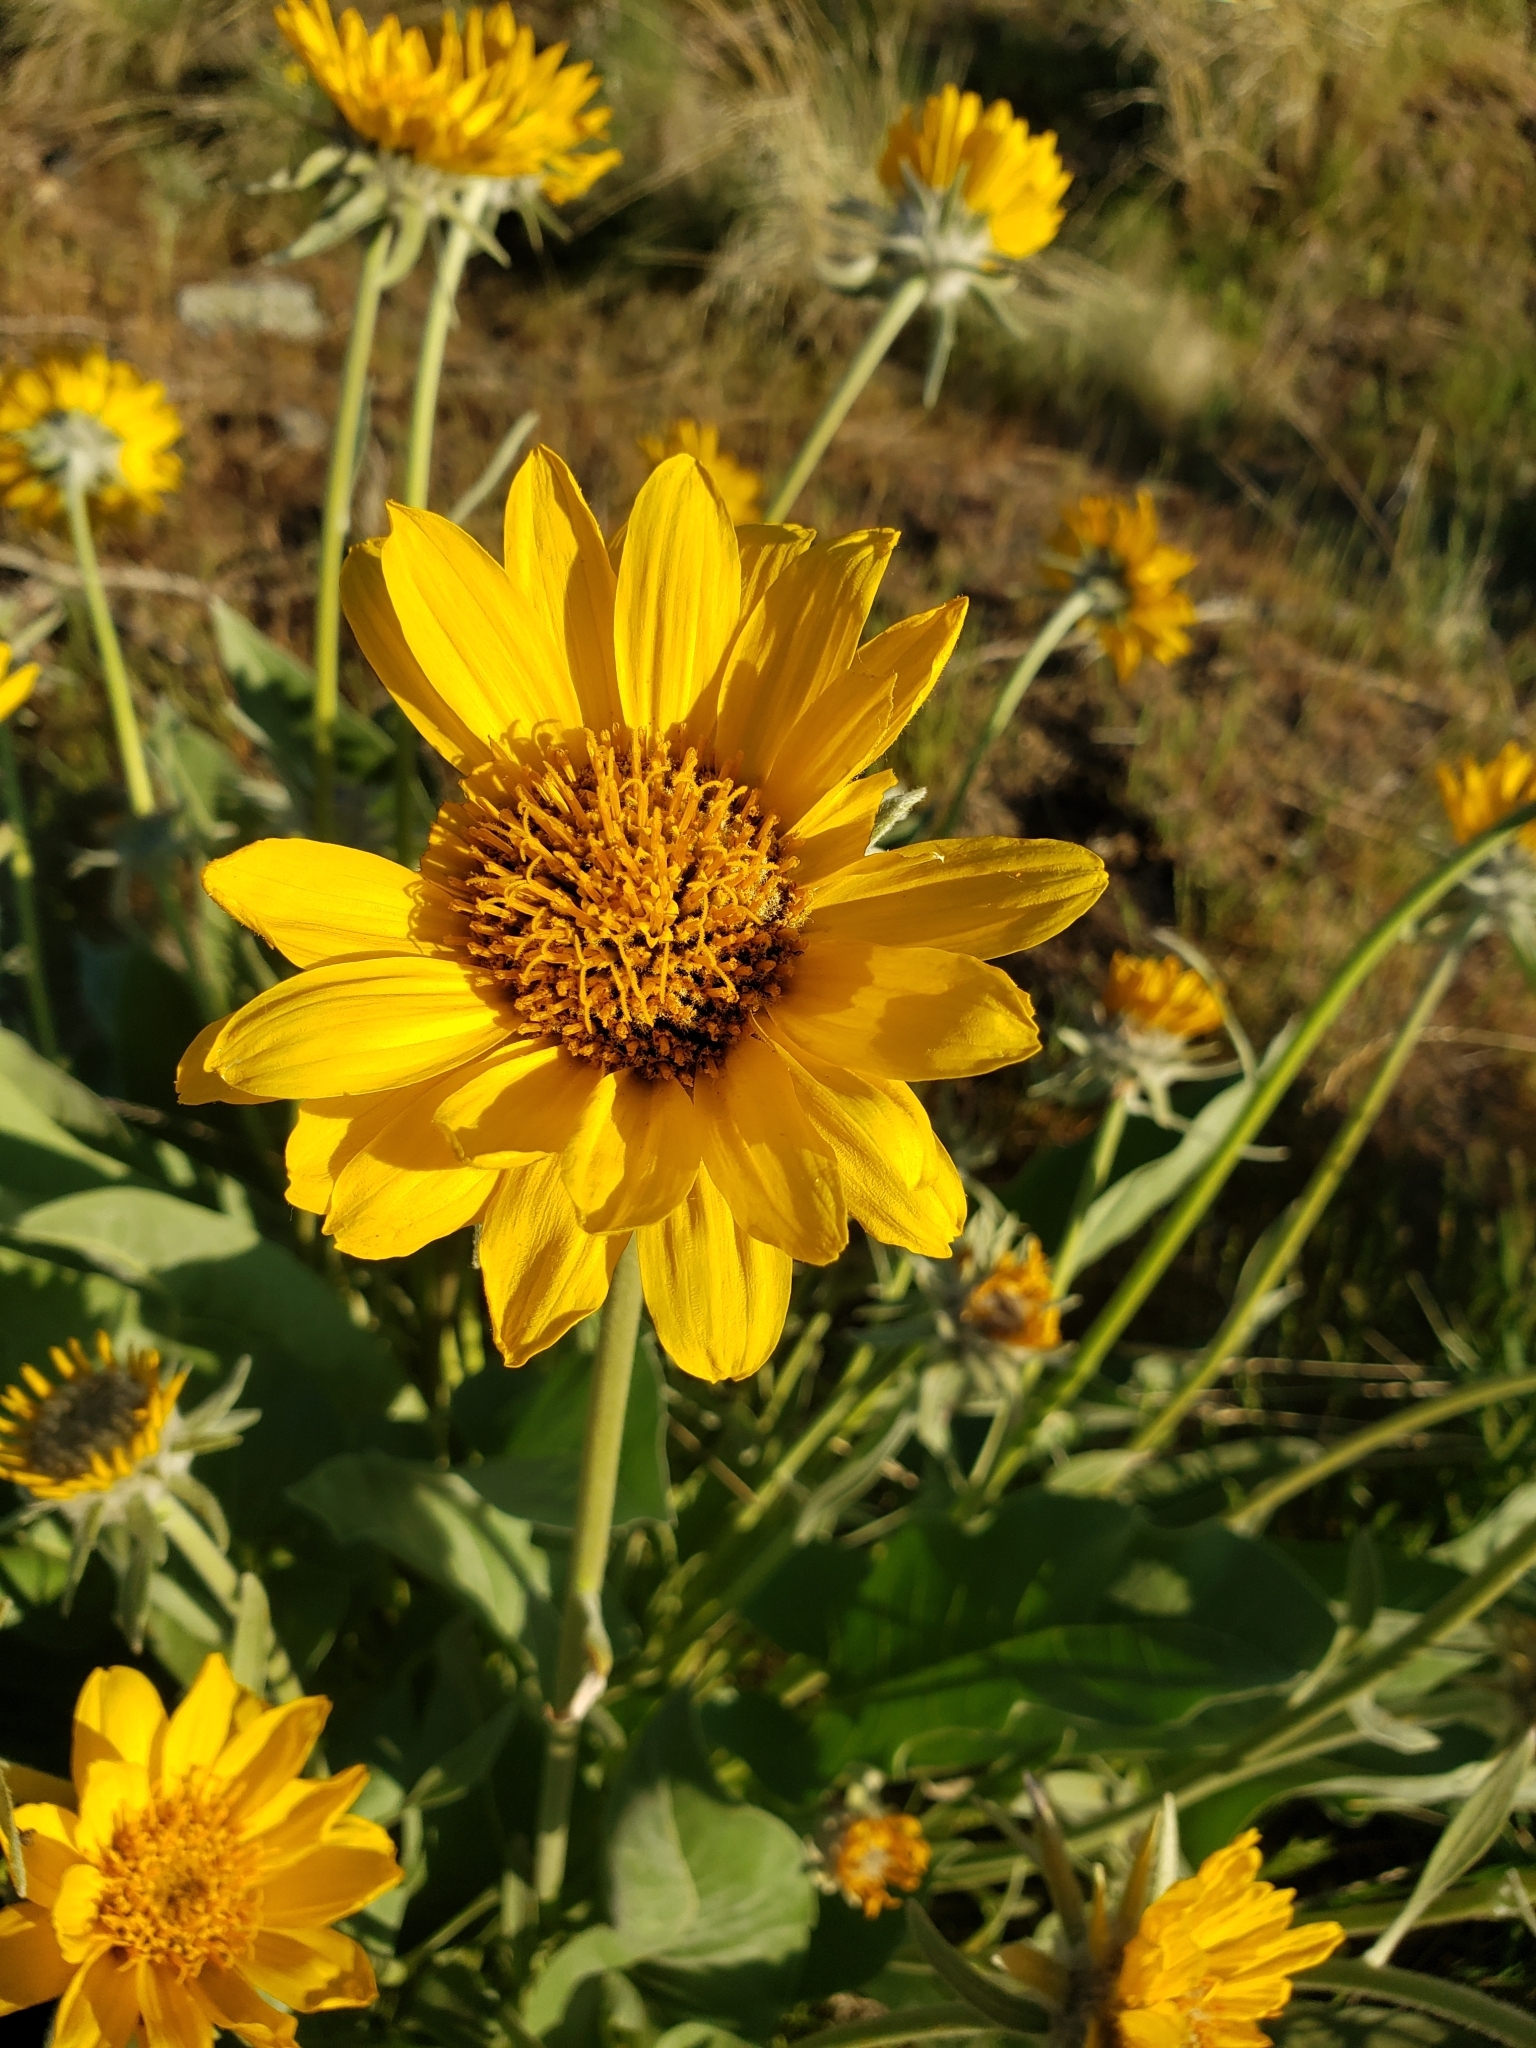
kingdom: Plantae
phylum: Tracheophyta
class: Magnoliopsida
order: Asterales
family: Asteraceae
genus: Wyethia
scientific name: Wyethia sagittata
